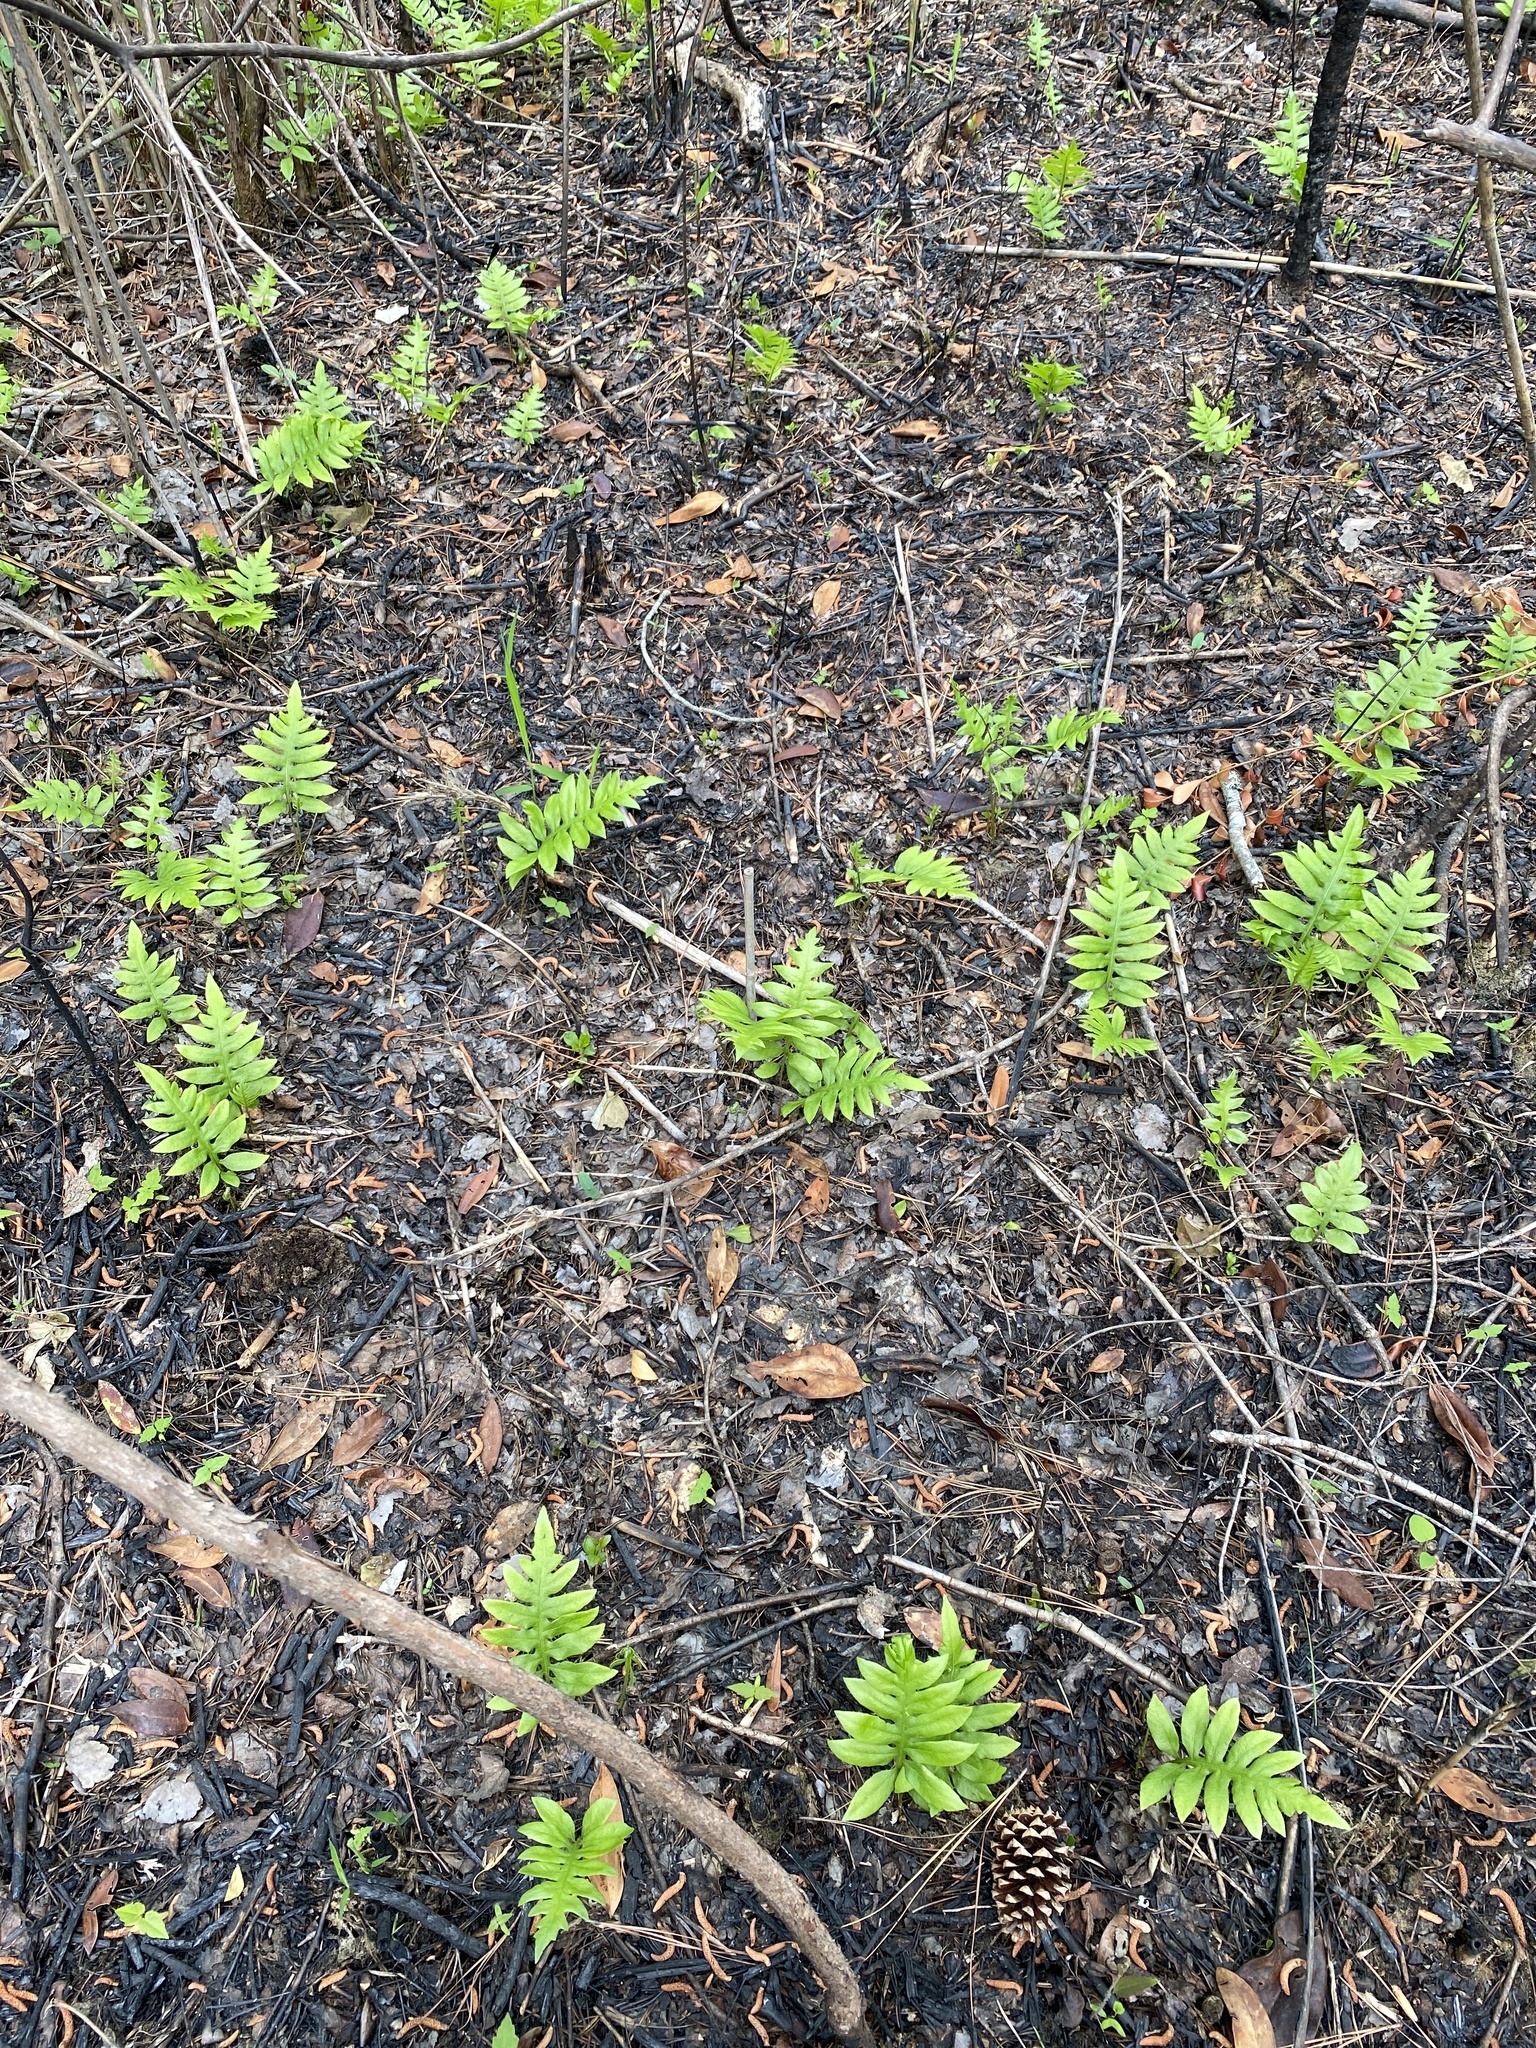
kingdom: Plantae
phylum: Tracheophyta
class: Polypodiopsida
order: Polypodiales
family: Blechnaceae
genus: Lorinseria
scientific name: Lorinseria areolata
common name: Dwarf chain fern
